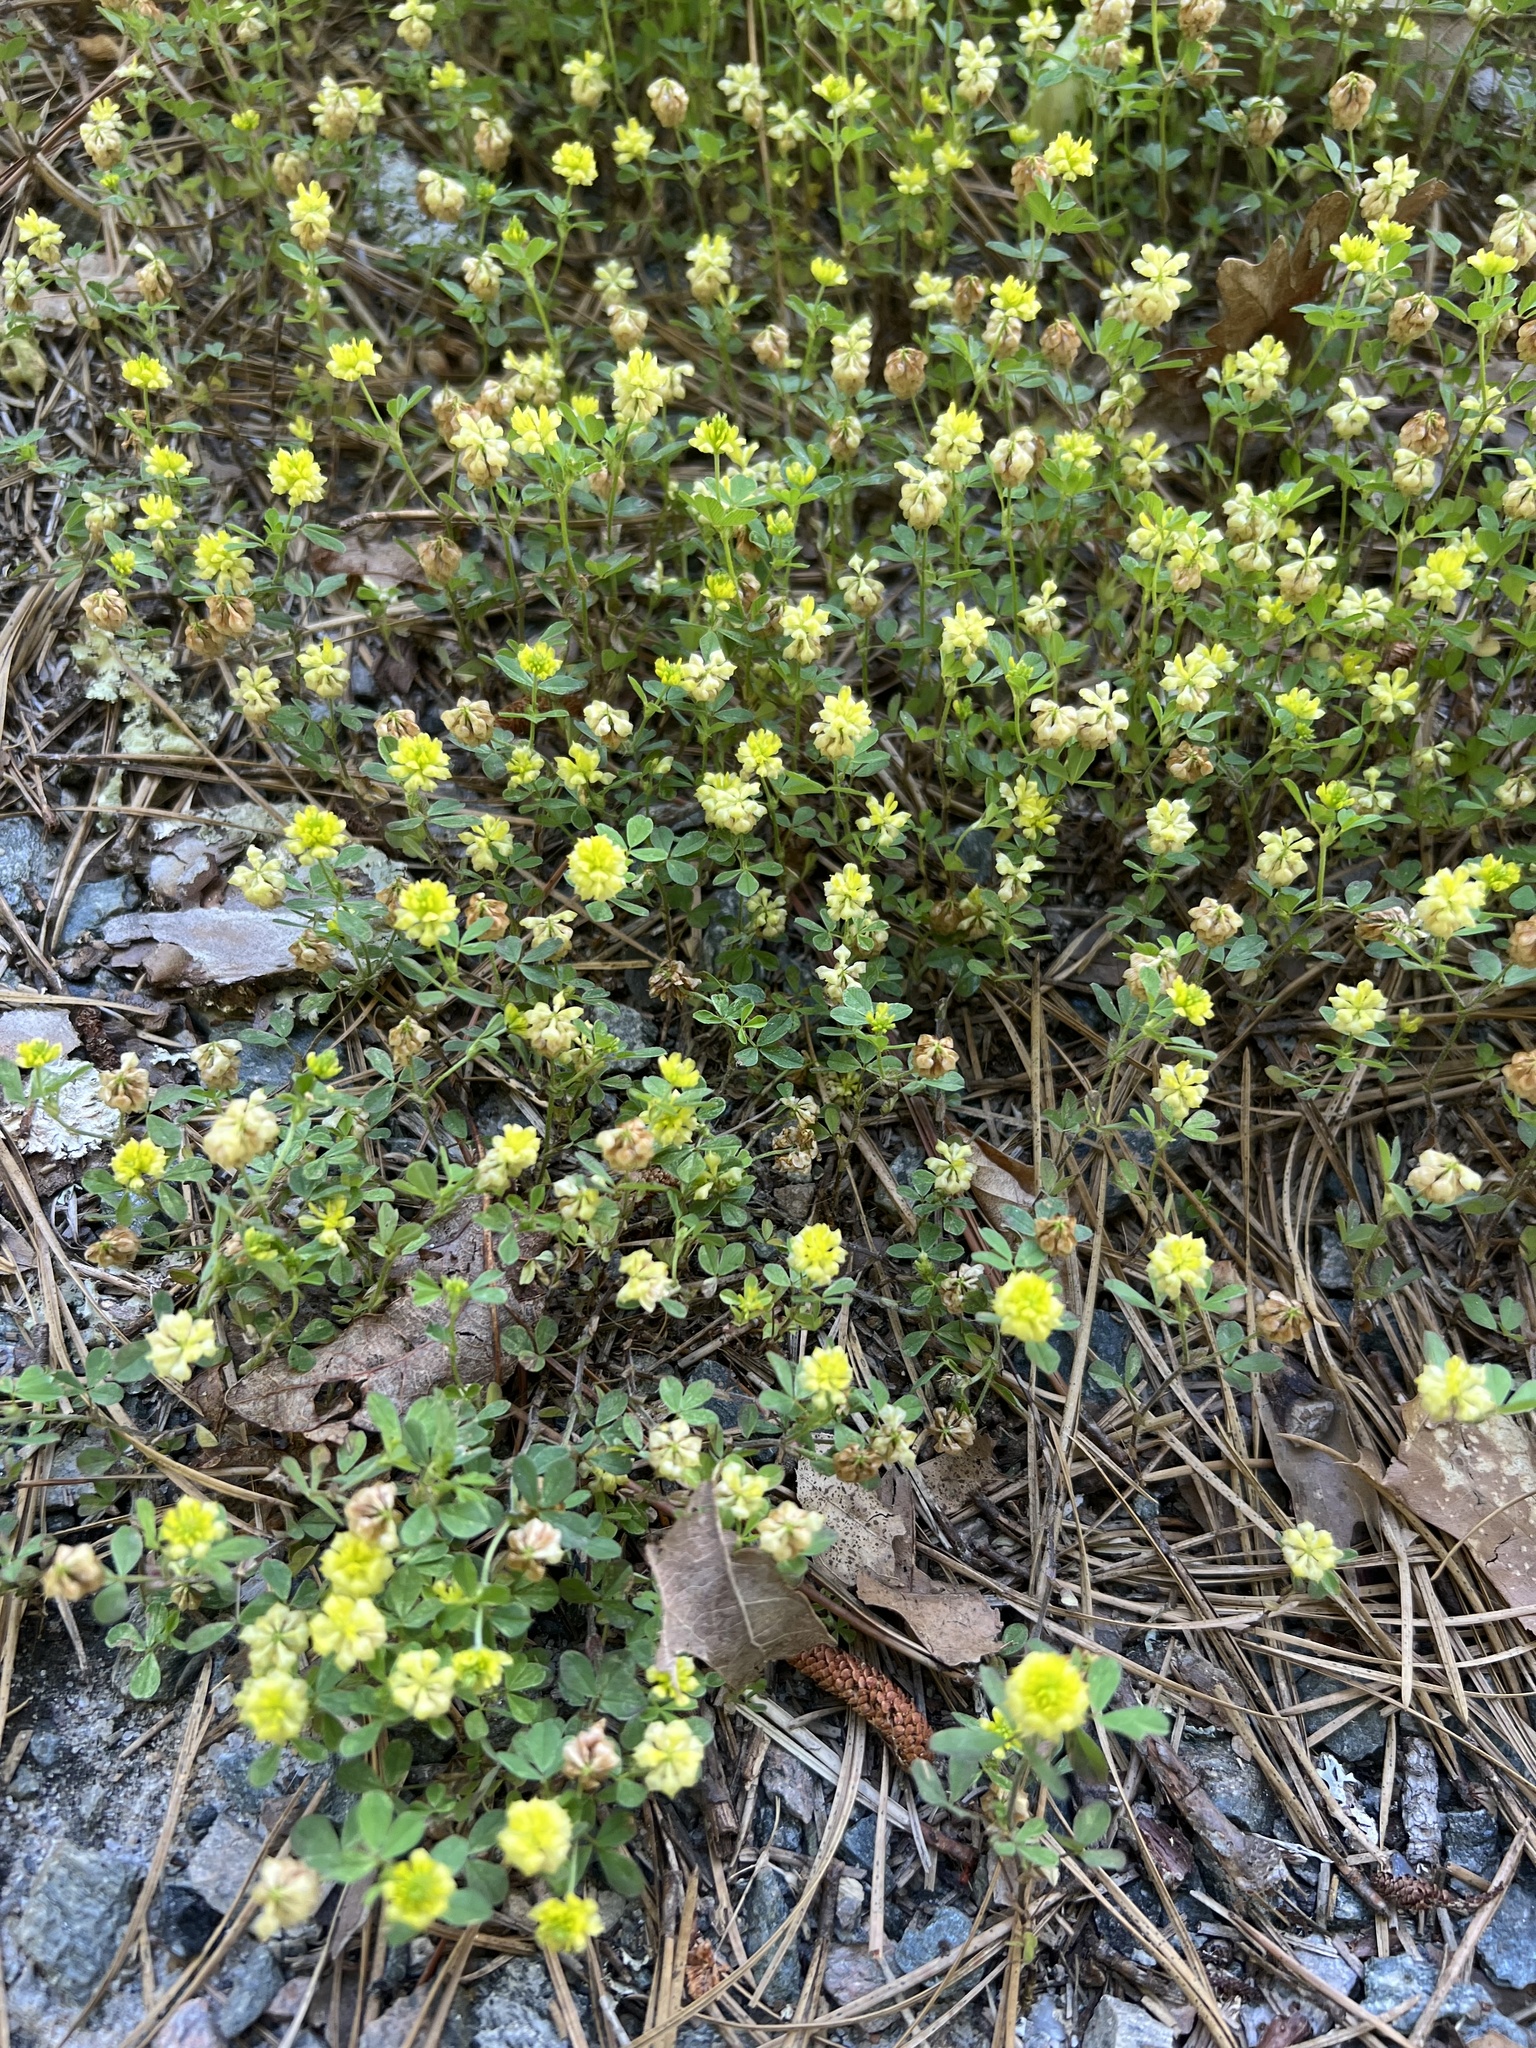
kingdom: Plantae
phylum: Tracheophyta
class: Magnoliopsida
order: Fabales
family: Fabaceae
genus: Trifolium
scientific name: Trifolium campestre
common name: Field clover
